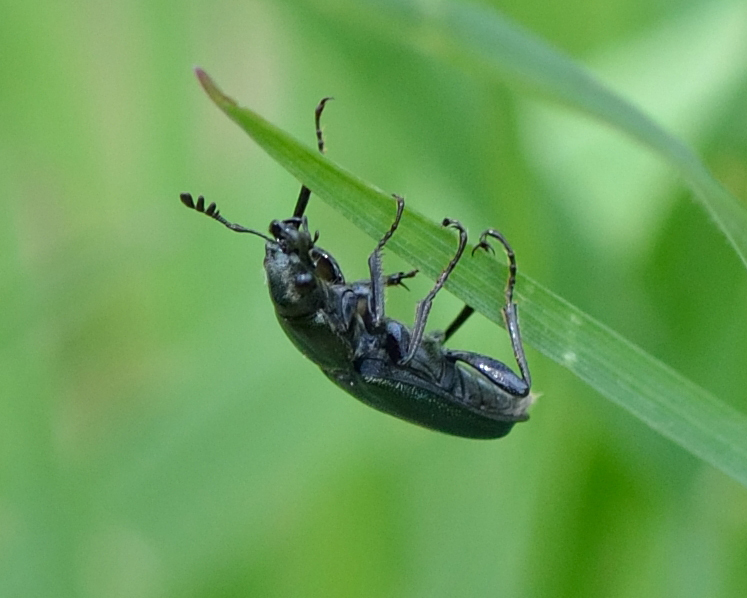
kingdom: Animalia
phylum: Arthropoda
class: Insecta
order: Coleoptera
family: Lucanidae
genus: Platycerus
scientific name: Platycerus caraboides
